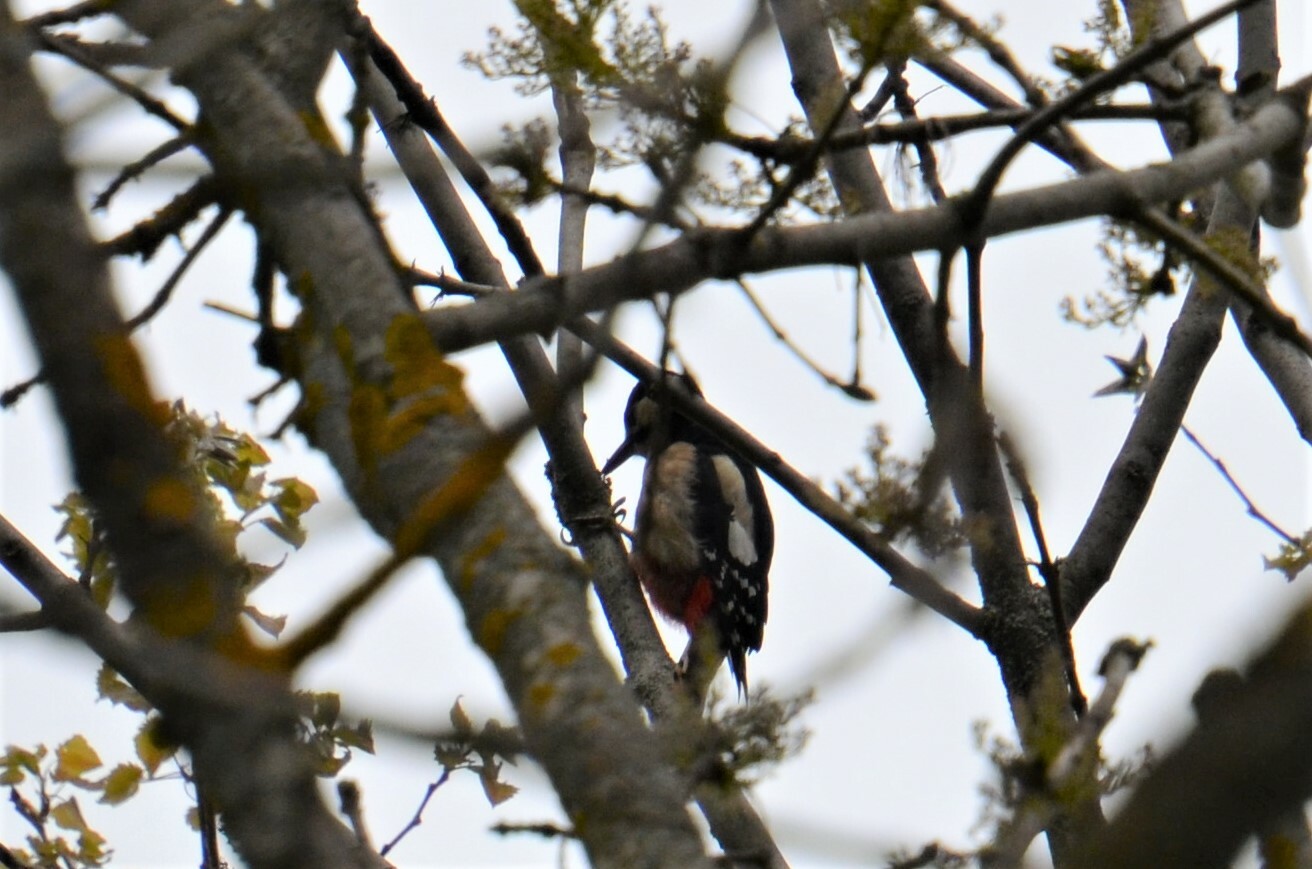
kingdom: Animalia
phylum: Chordata
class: Aves
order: Piciformes
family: Picidae
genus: Dendrocopos
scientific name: Dendrocopos major
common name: Great spotted woodpecker
